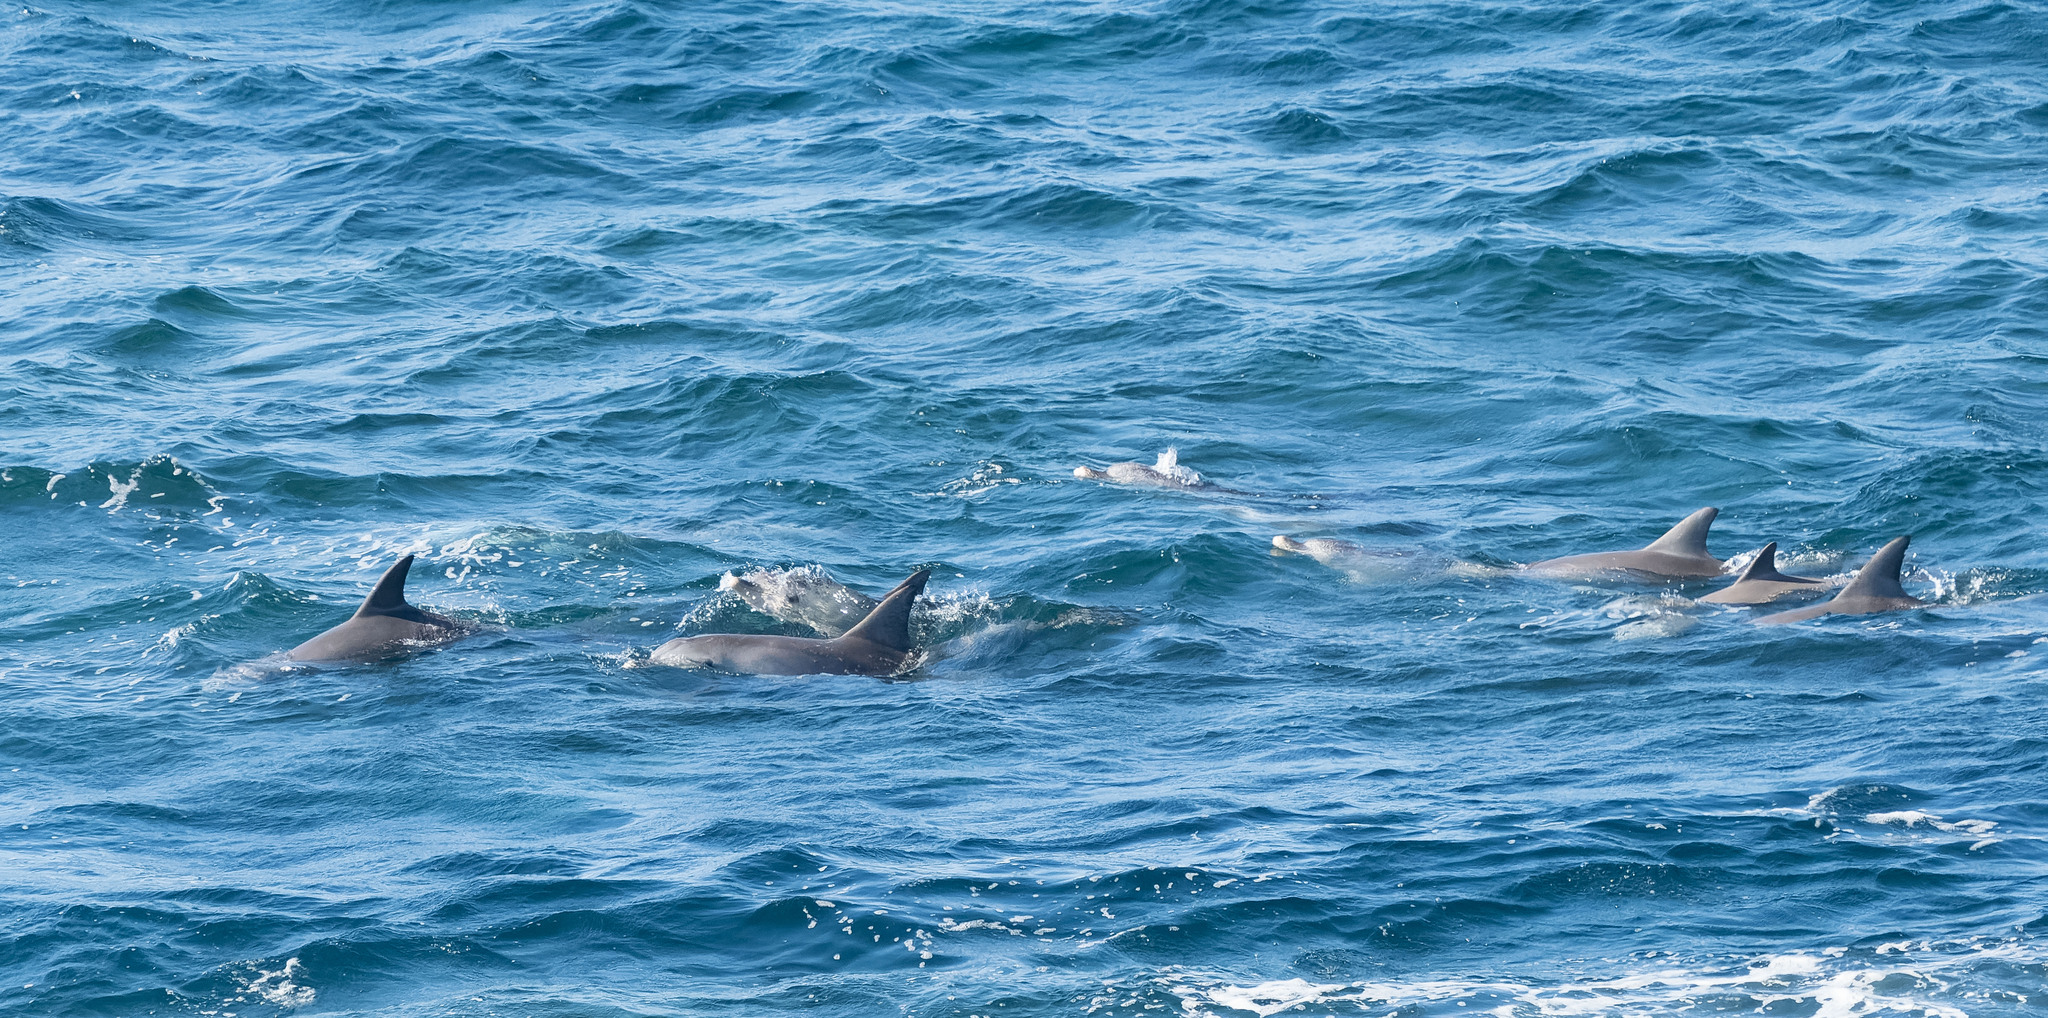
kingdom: Animalia
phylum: Chordata
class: Mammalia
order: Cetacea
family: Delphinidae
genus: Tursiops
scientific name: Tursiops aduncus
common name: Indo-pacific bottlenose dolphin
